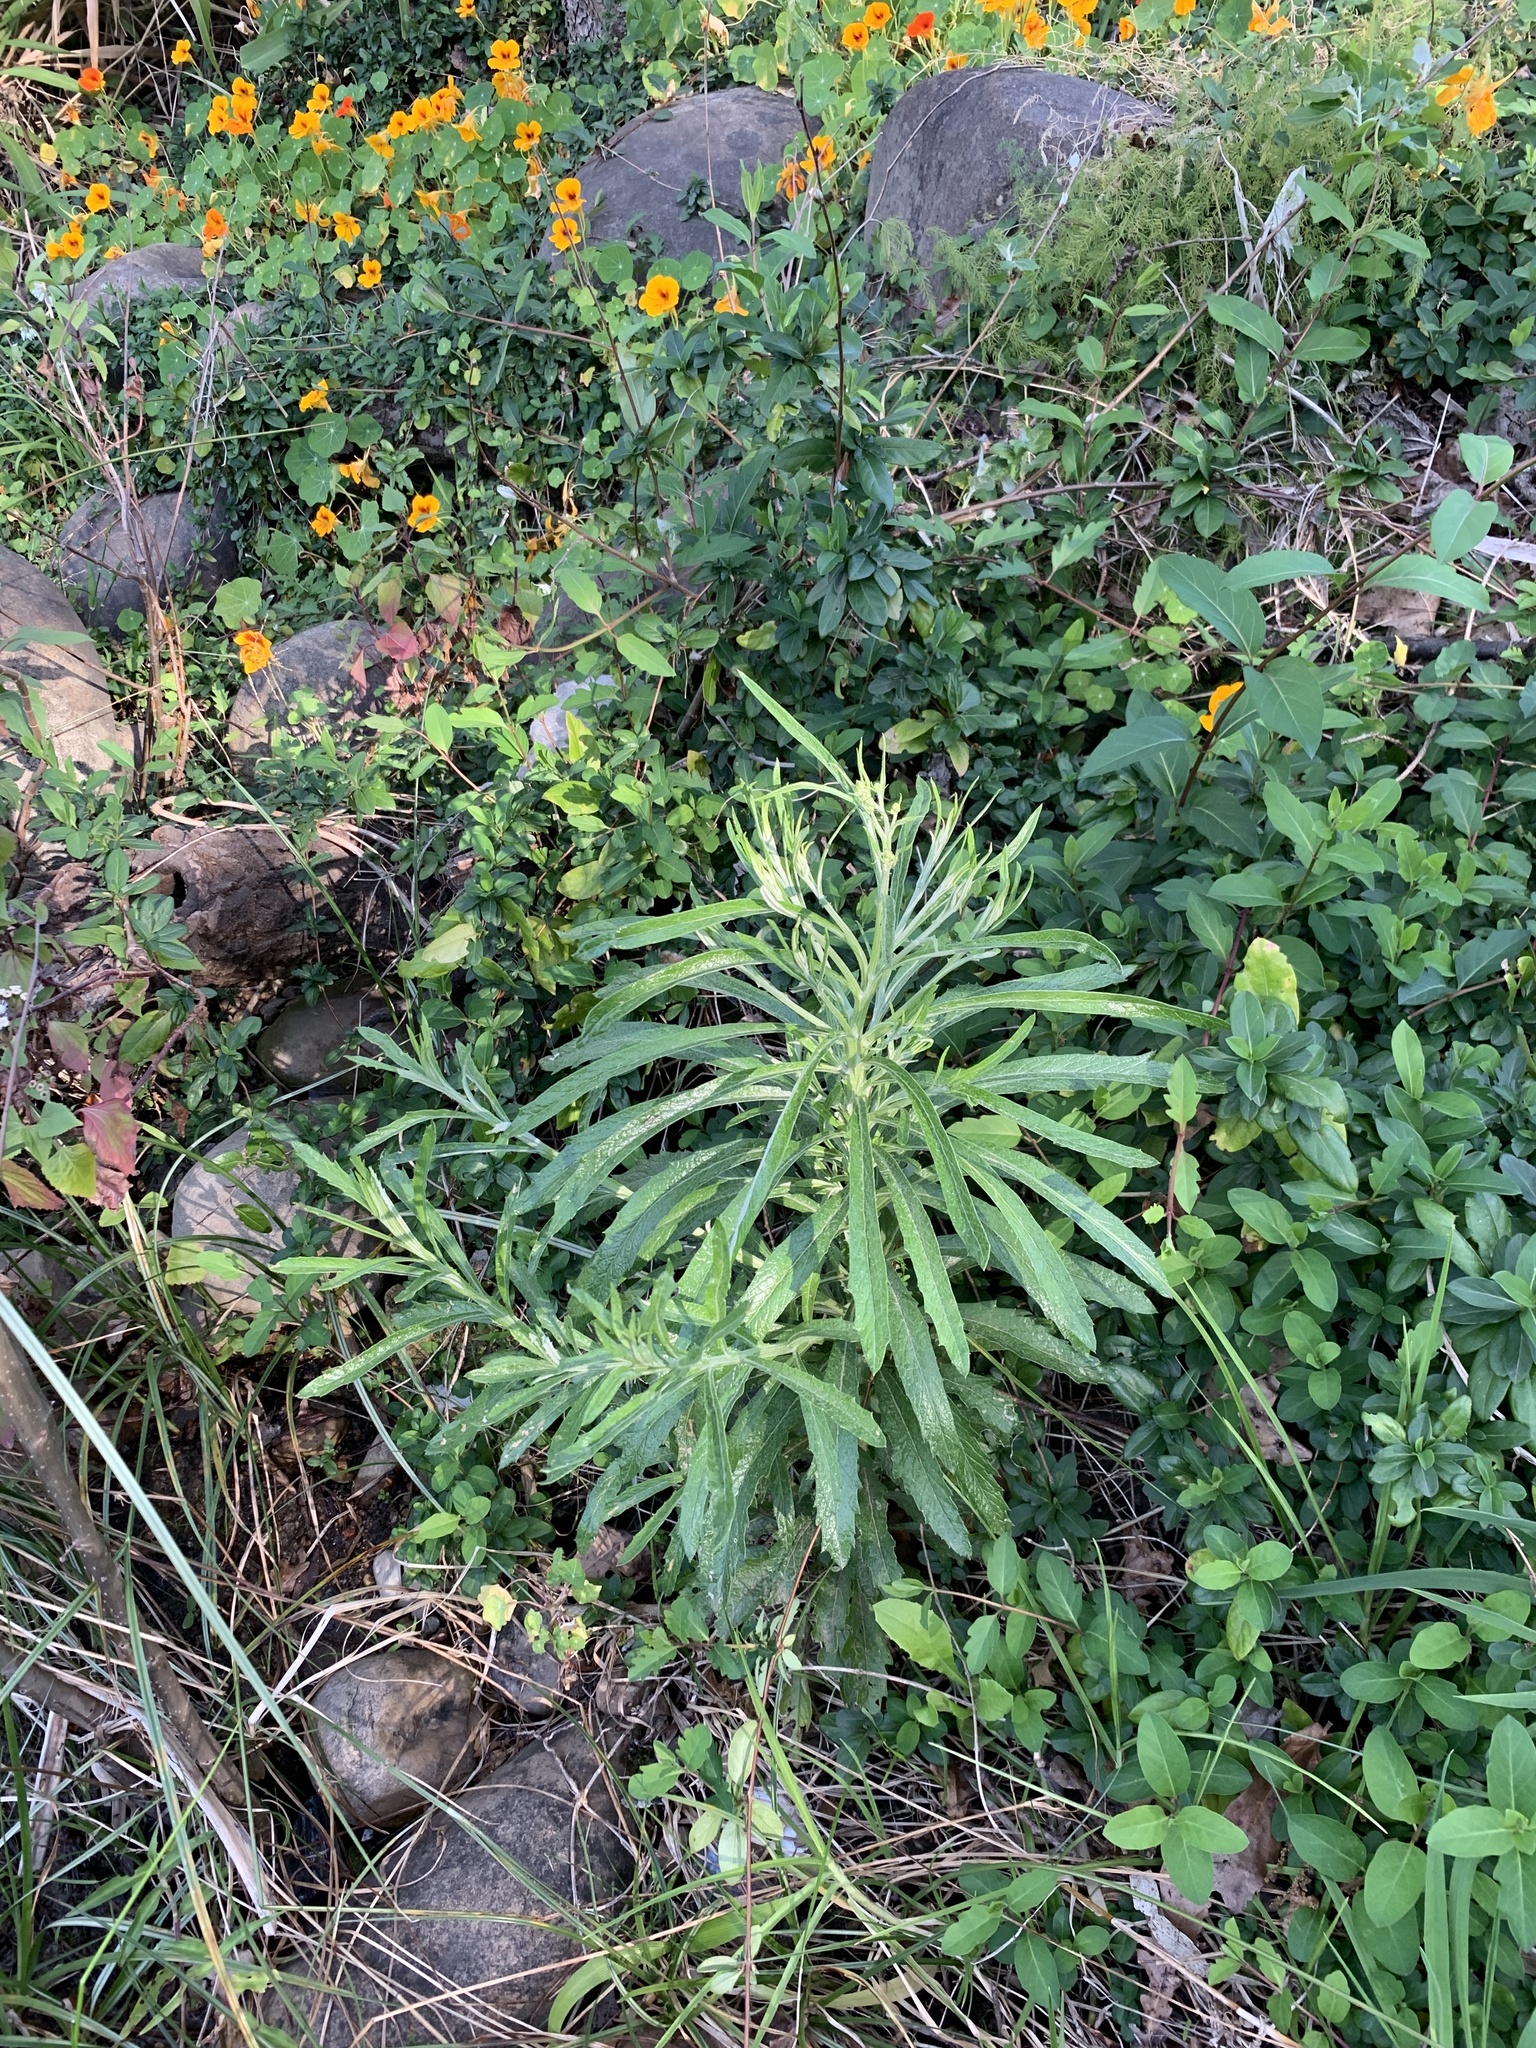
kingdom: Plantae
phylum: Tracheophyta
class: Magnoliopsida
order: Asterales
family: Asteraceae
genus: Senecio
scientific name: Senecio pterophorus
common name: Shoddy ragwort
